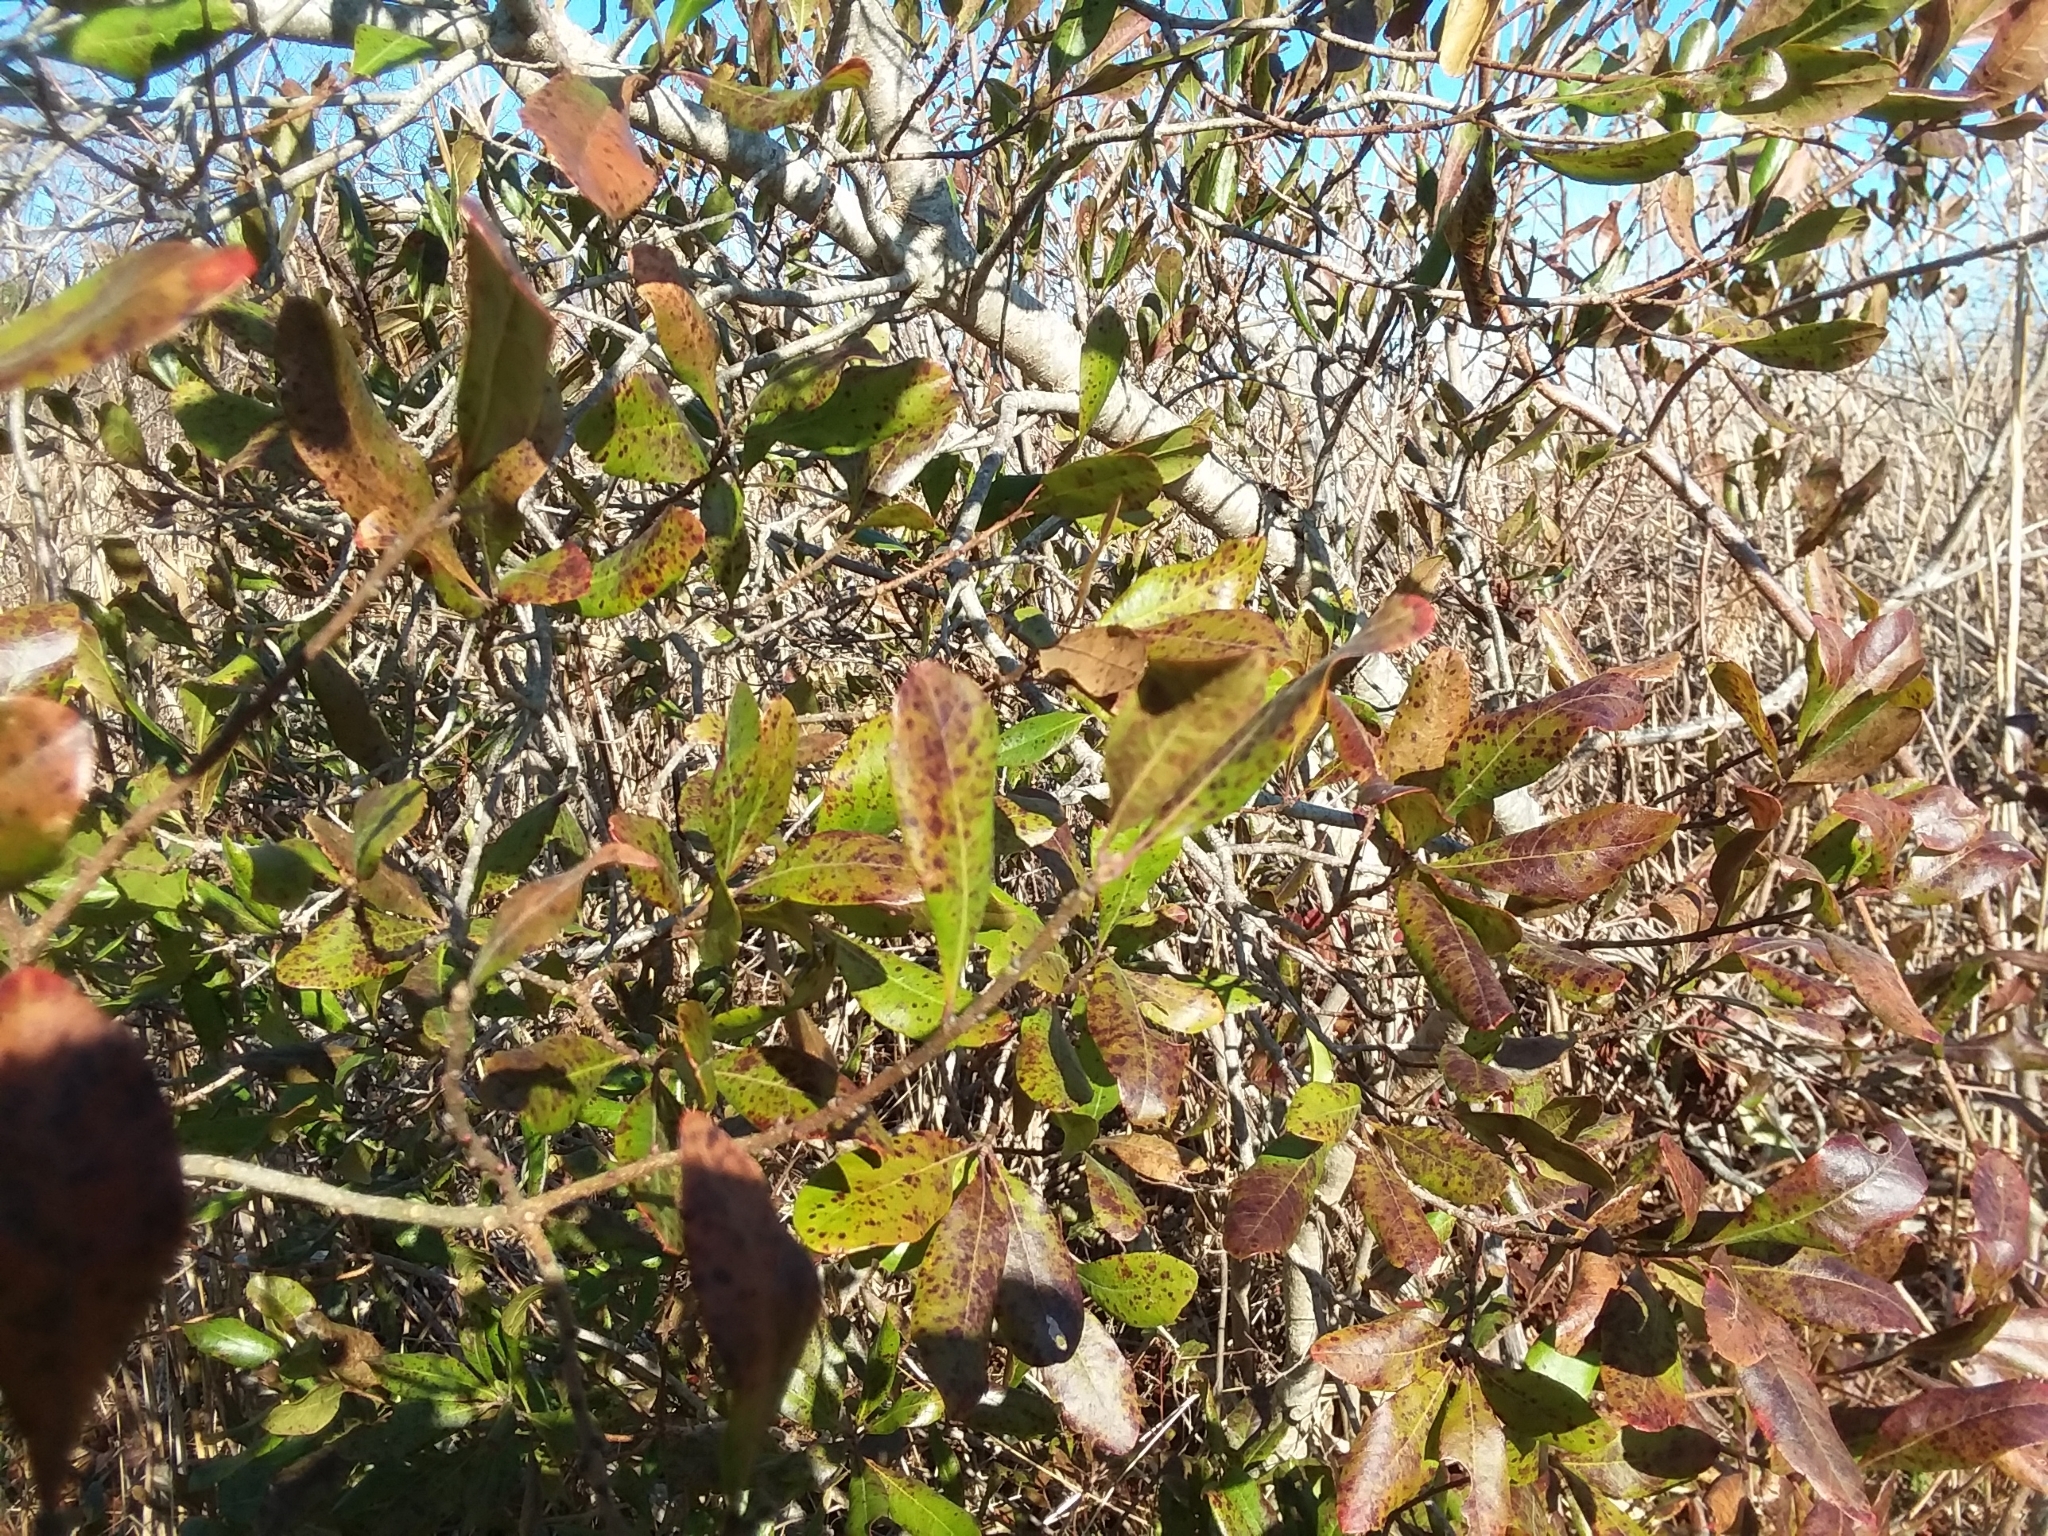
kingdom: Plantae
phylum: Tracheophyta
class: Magnoliopsida
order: Fagales
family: Myricaceae
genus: Morella
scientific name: Morella pensylvanica
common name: Northern bayberry
